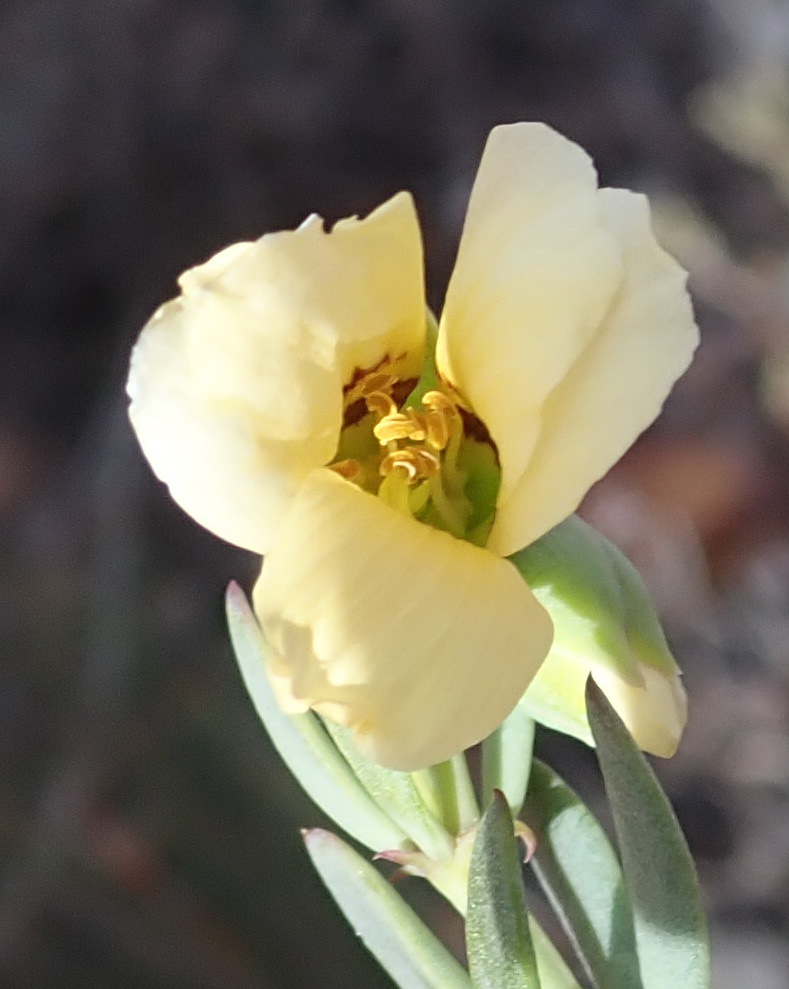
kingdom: Plantae
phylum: Tracheophyta
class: Magnoliopsida
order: Zygophyllales
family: Zygophyllaceae
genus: Roepera
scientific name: Roepera fulva
